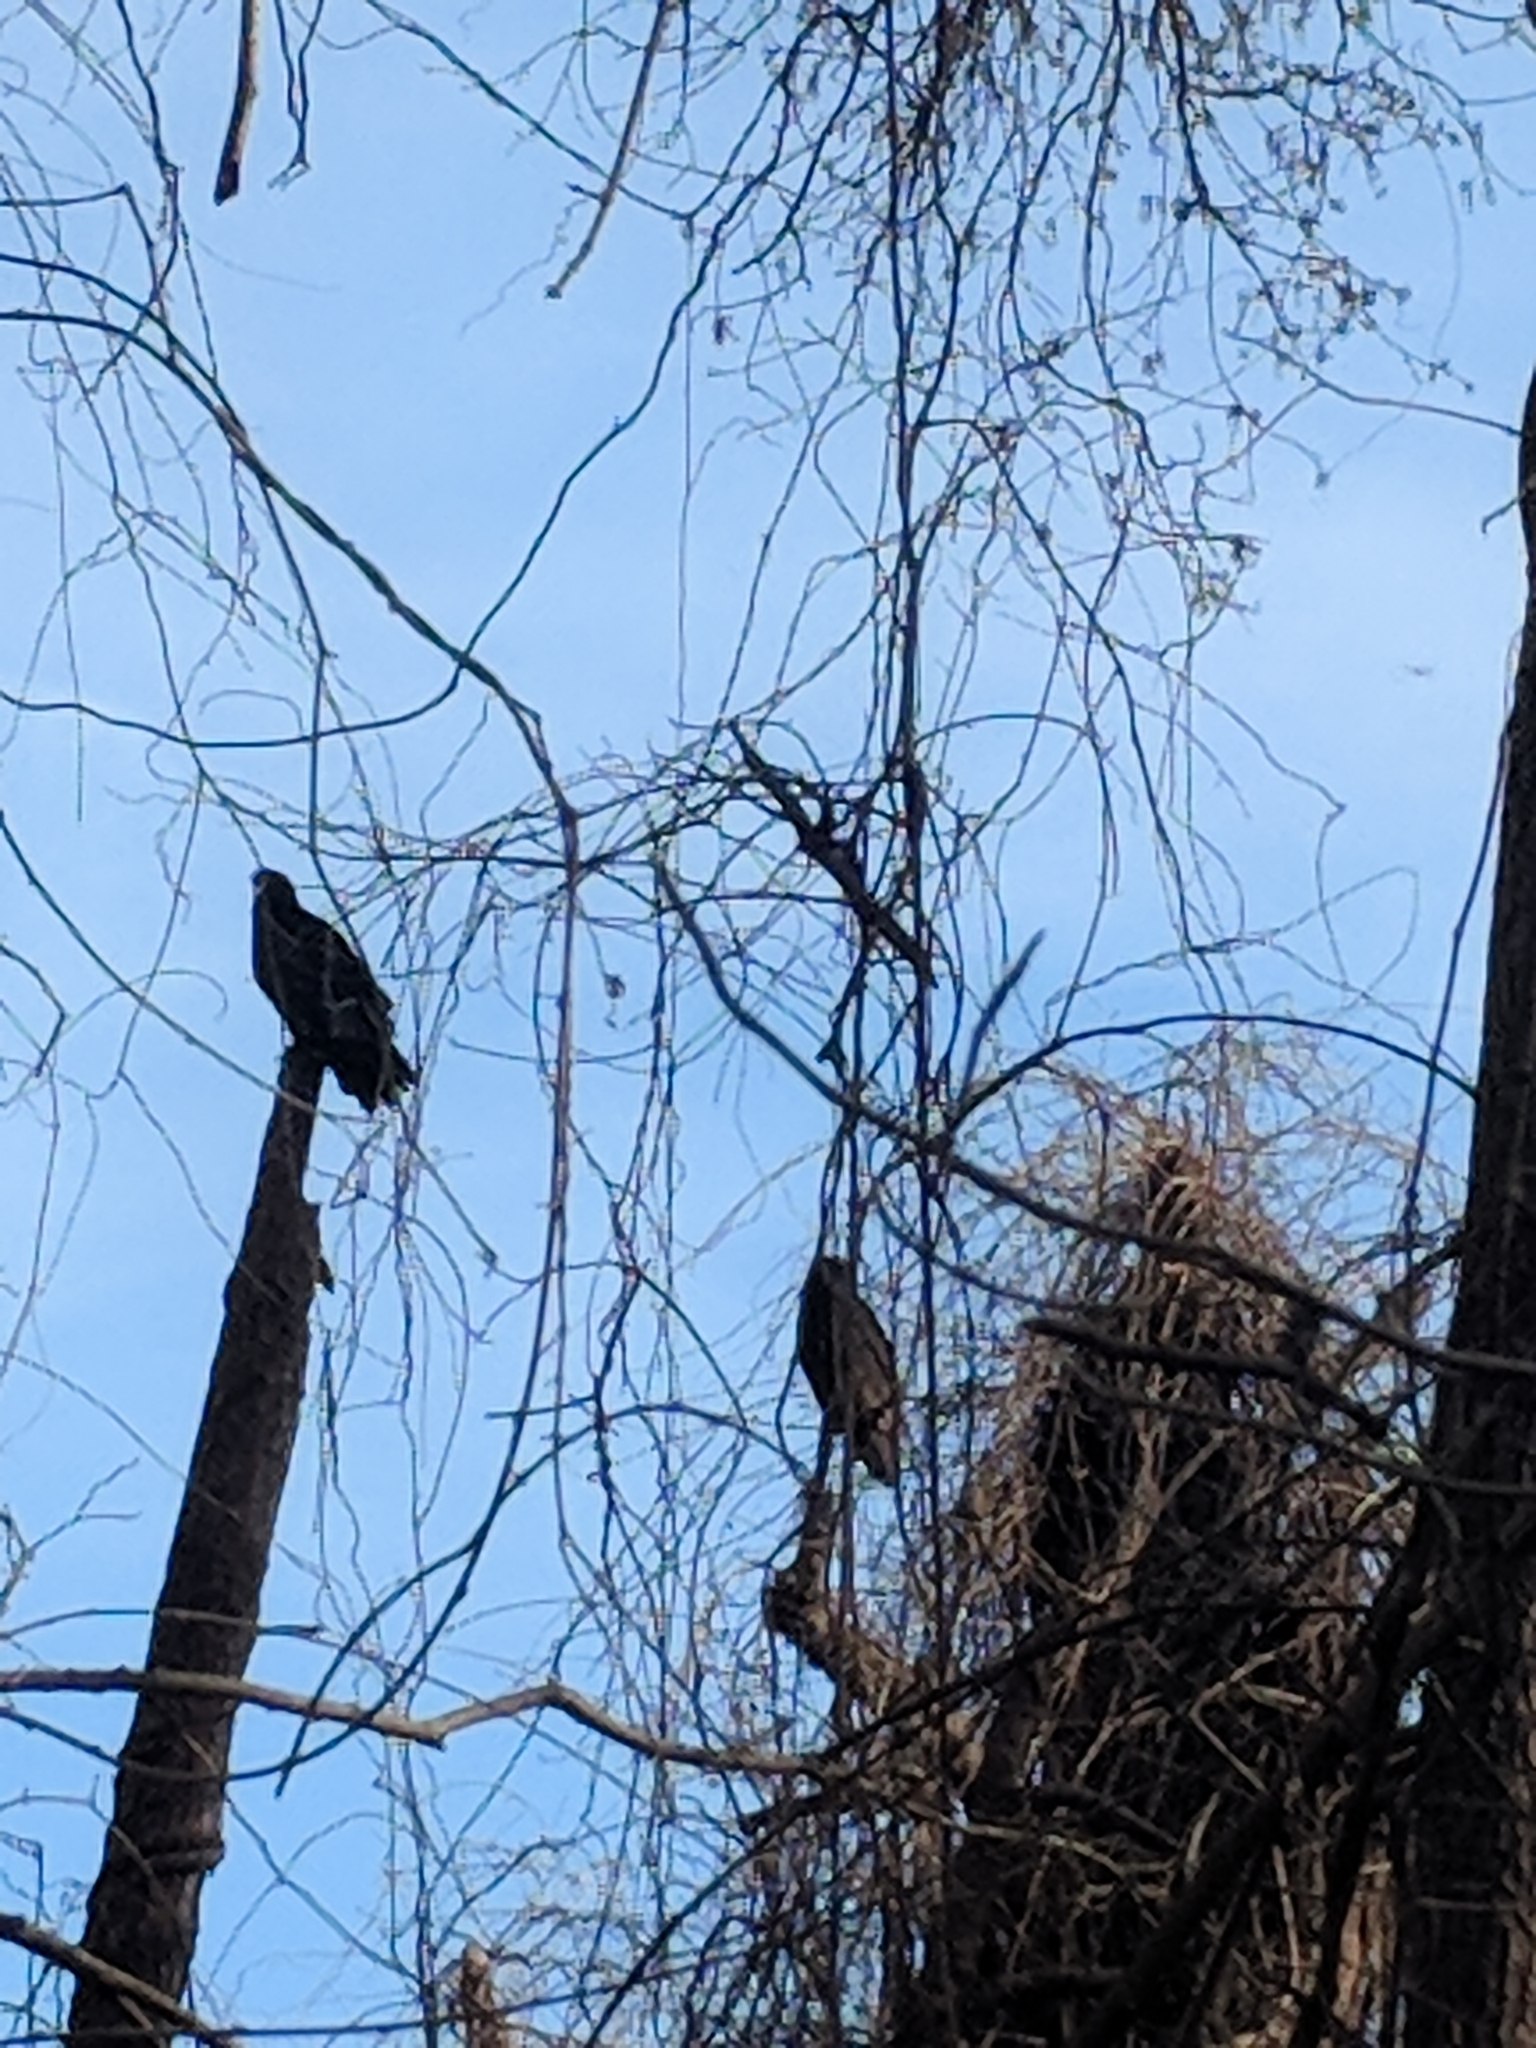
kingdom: Animalia
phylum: Chordata
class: Aves
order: Accipitriformes
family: Cathartidae
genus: Coragyps
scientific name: Coragyps atratus
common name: Black vulture
